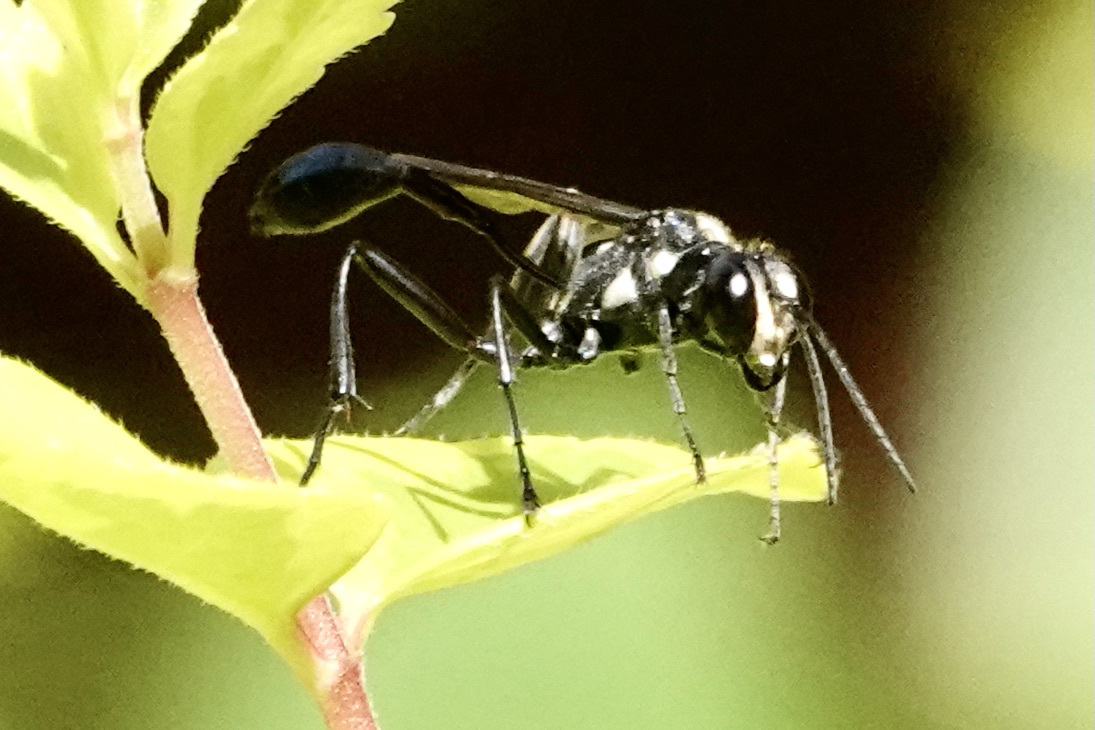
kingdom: Animalia
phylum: Arthropoda
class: Insecta
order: Hymenoptera
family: Sphecidae
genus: Eremnophila
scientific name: Eremnophila aureonotata
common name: Gold-marked thread-waisted wasp
